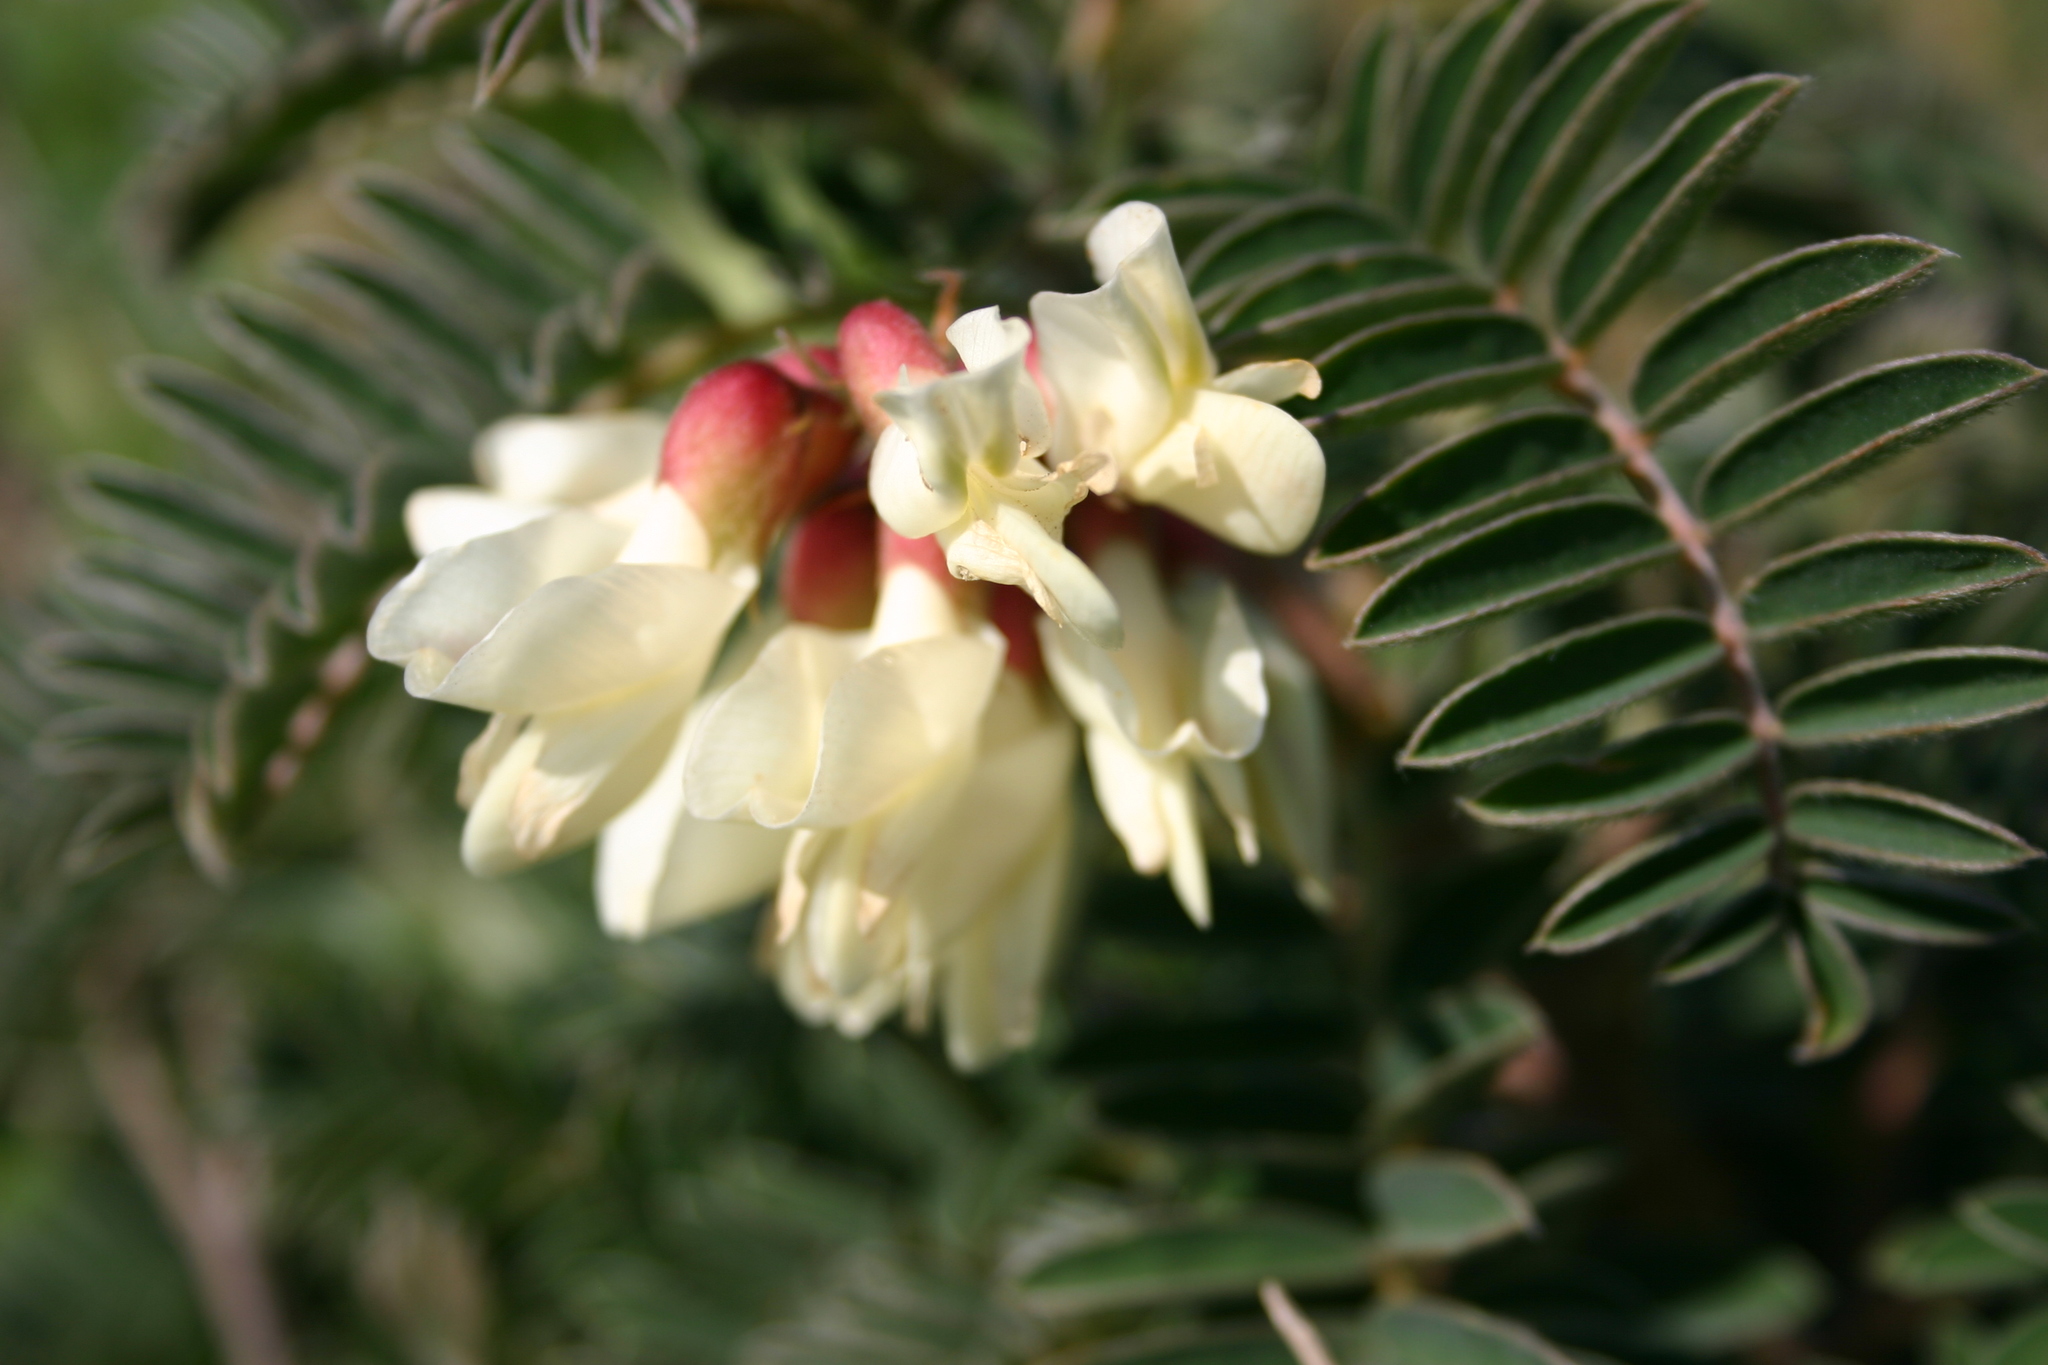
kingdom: Plantae
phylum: Tracheophyta
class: Magnoliopsida
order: Fabales
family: Fabaceae
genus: Erophaca
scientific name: Erophaca baetica
